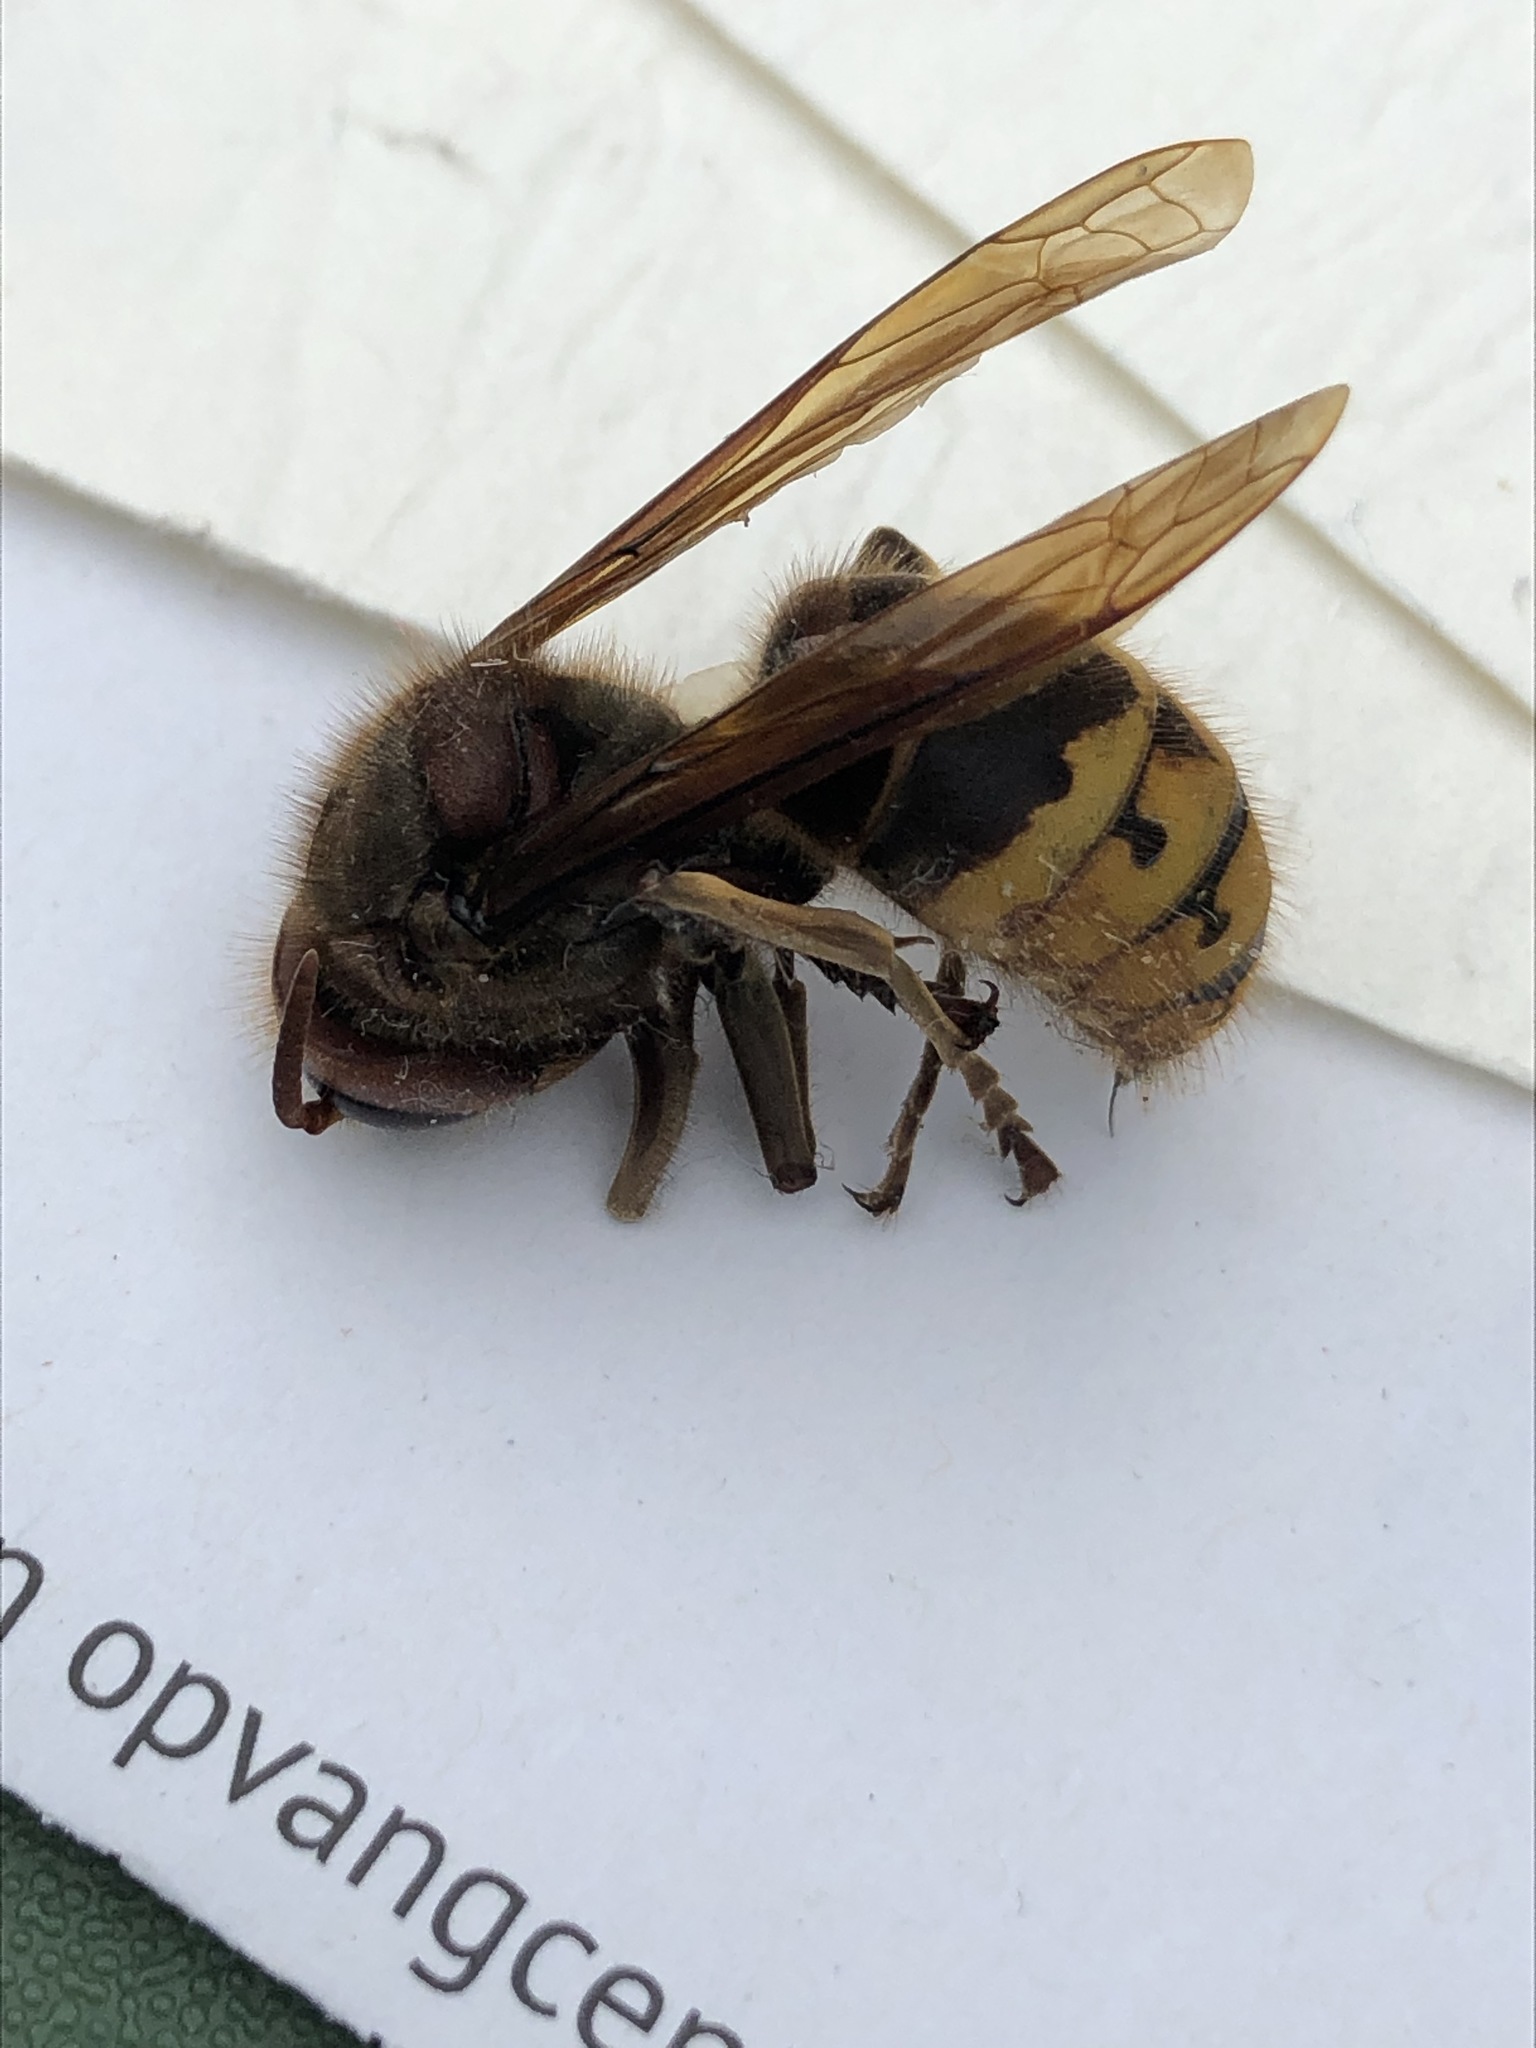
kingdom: Animalia
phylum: Arthropoda
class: Insecta
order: Hymenoptera
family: Vespidae
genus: Vespa
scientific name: Vespa crabro
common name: Hornet
